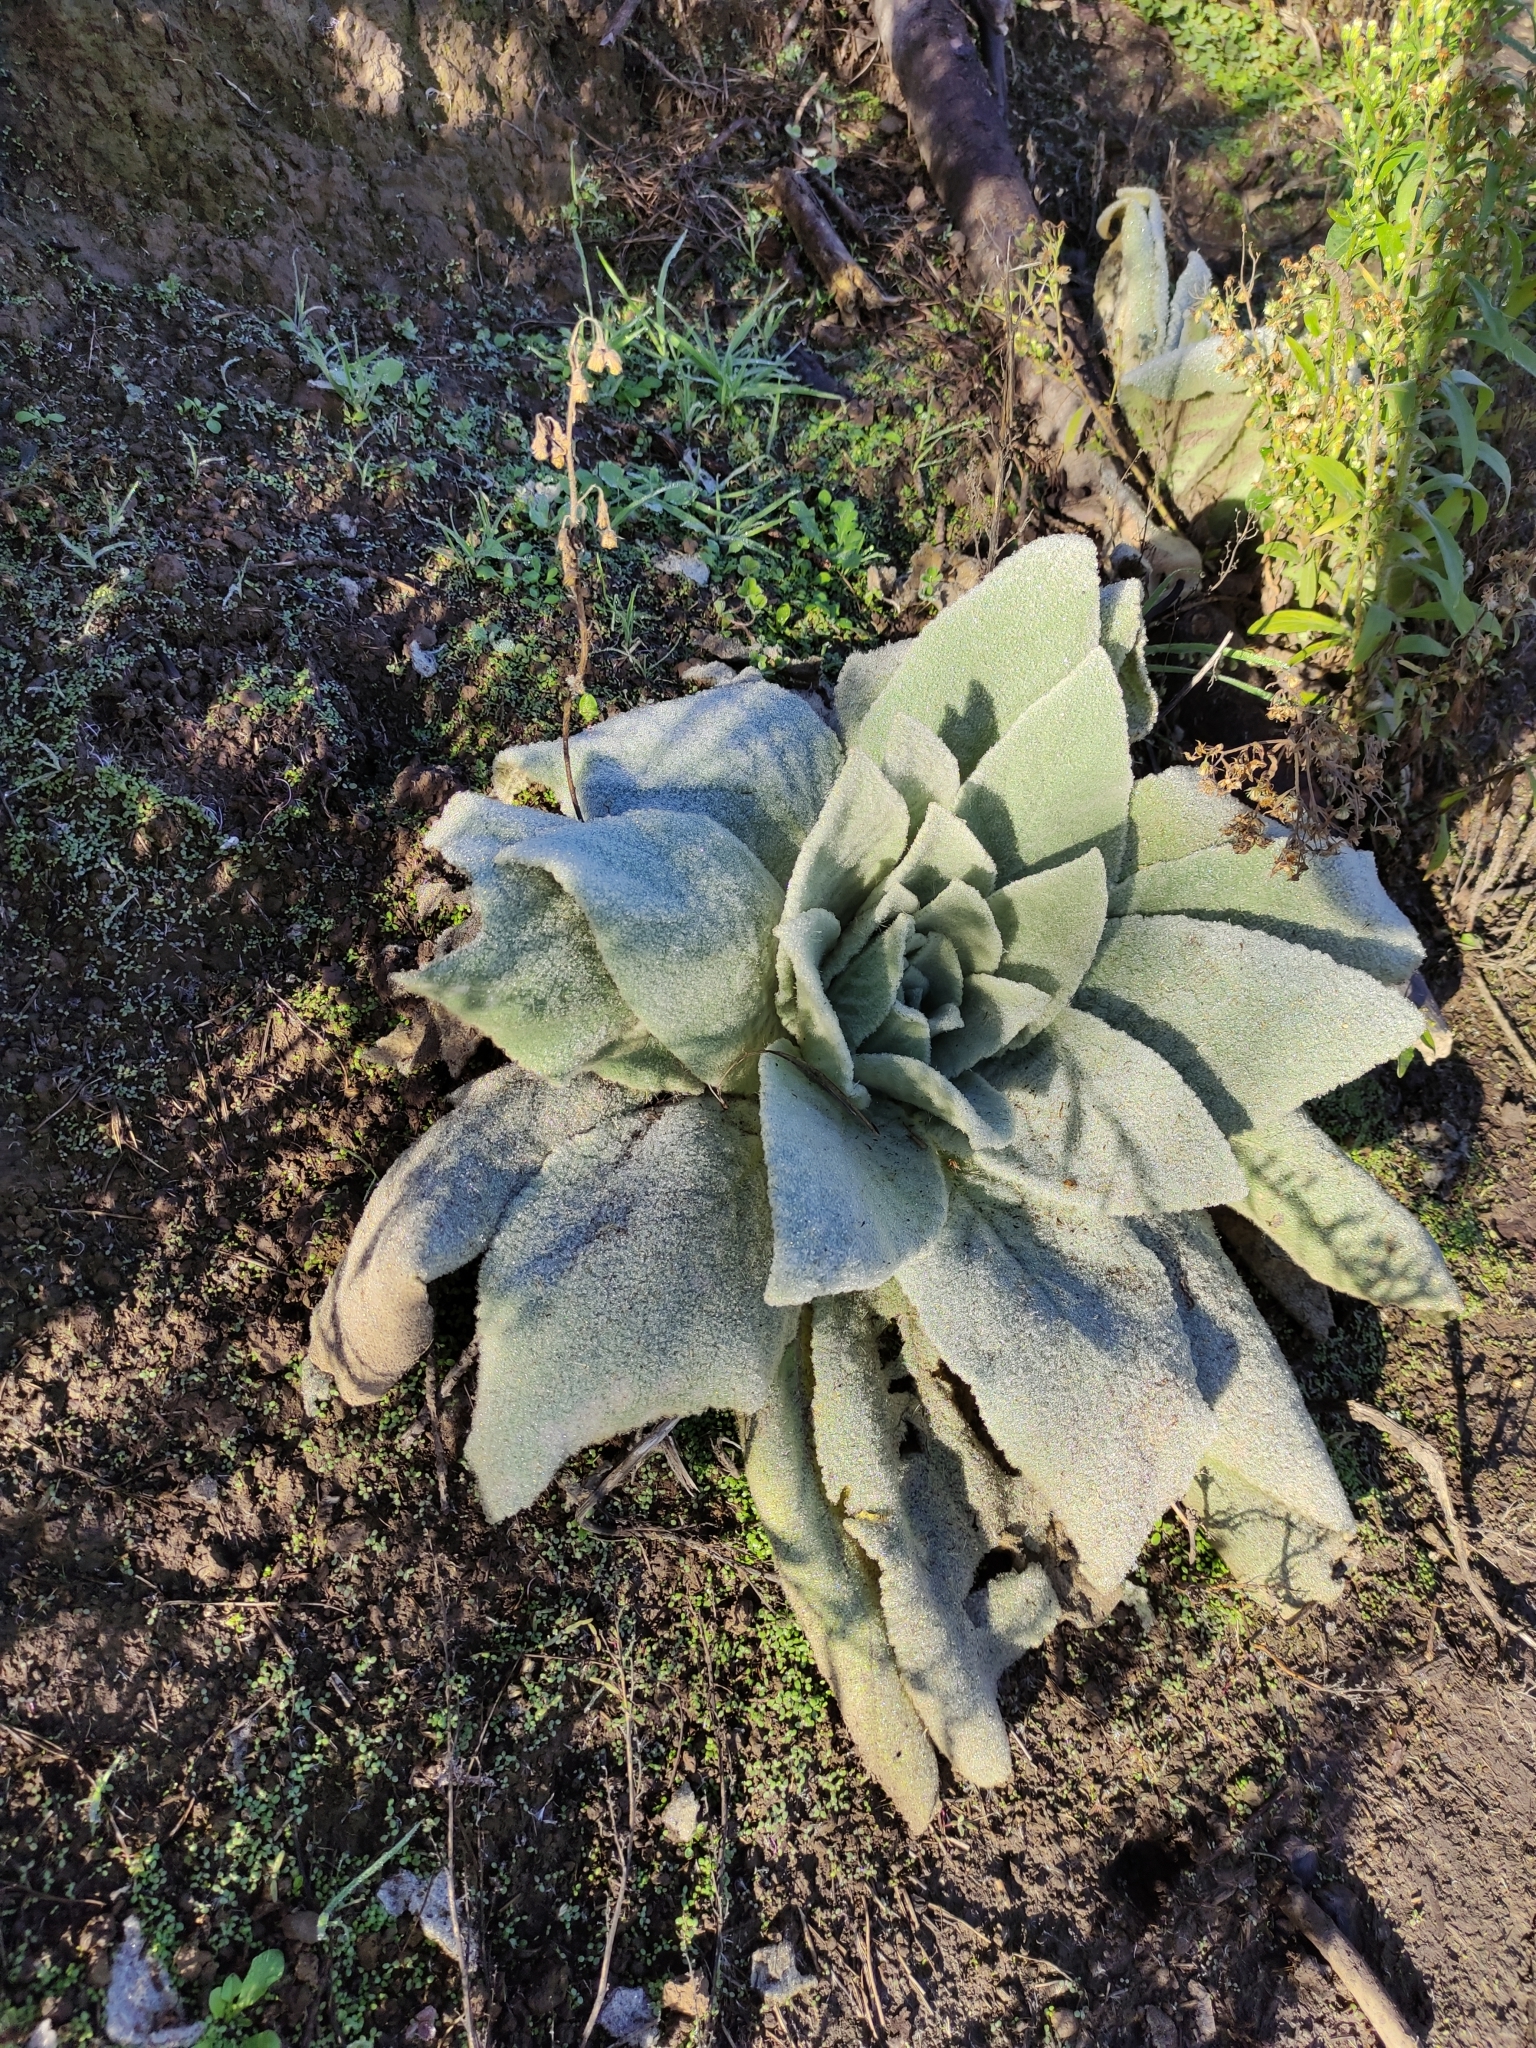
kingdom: Plantae
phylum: Tracheophyta
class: Magnoliopsida
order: Lamiales
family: Scrophulariaceae
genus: Verbascum
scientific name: Verbascum thapsus
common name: Common mullein
